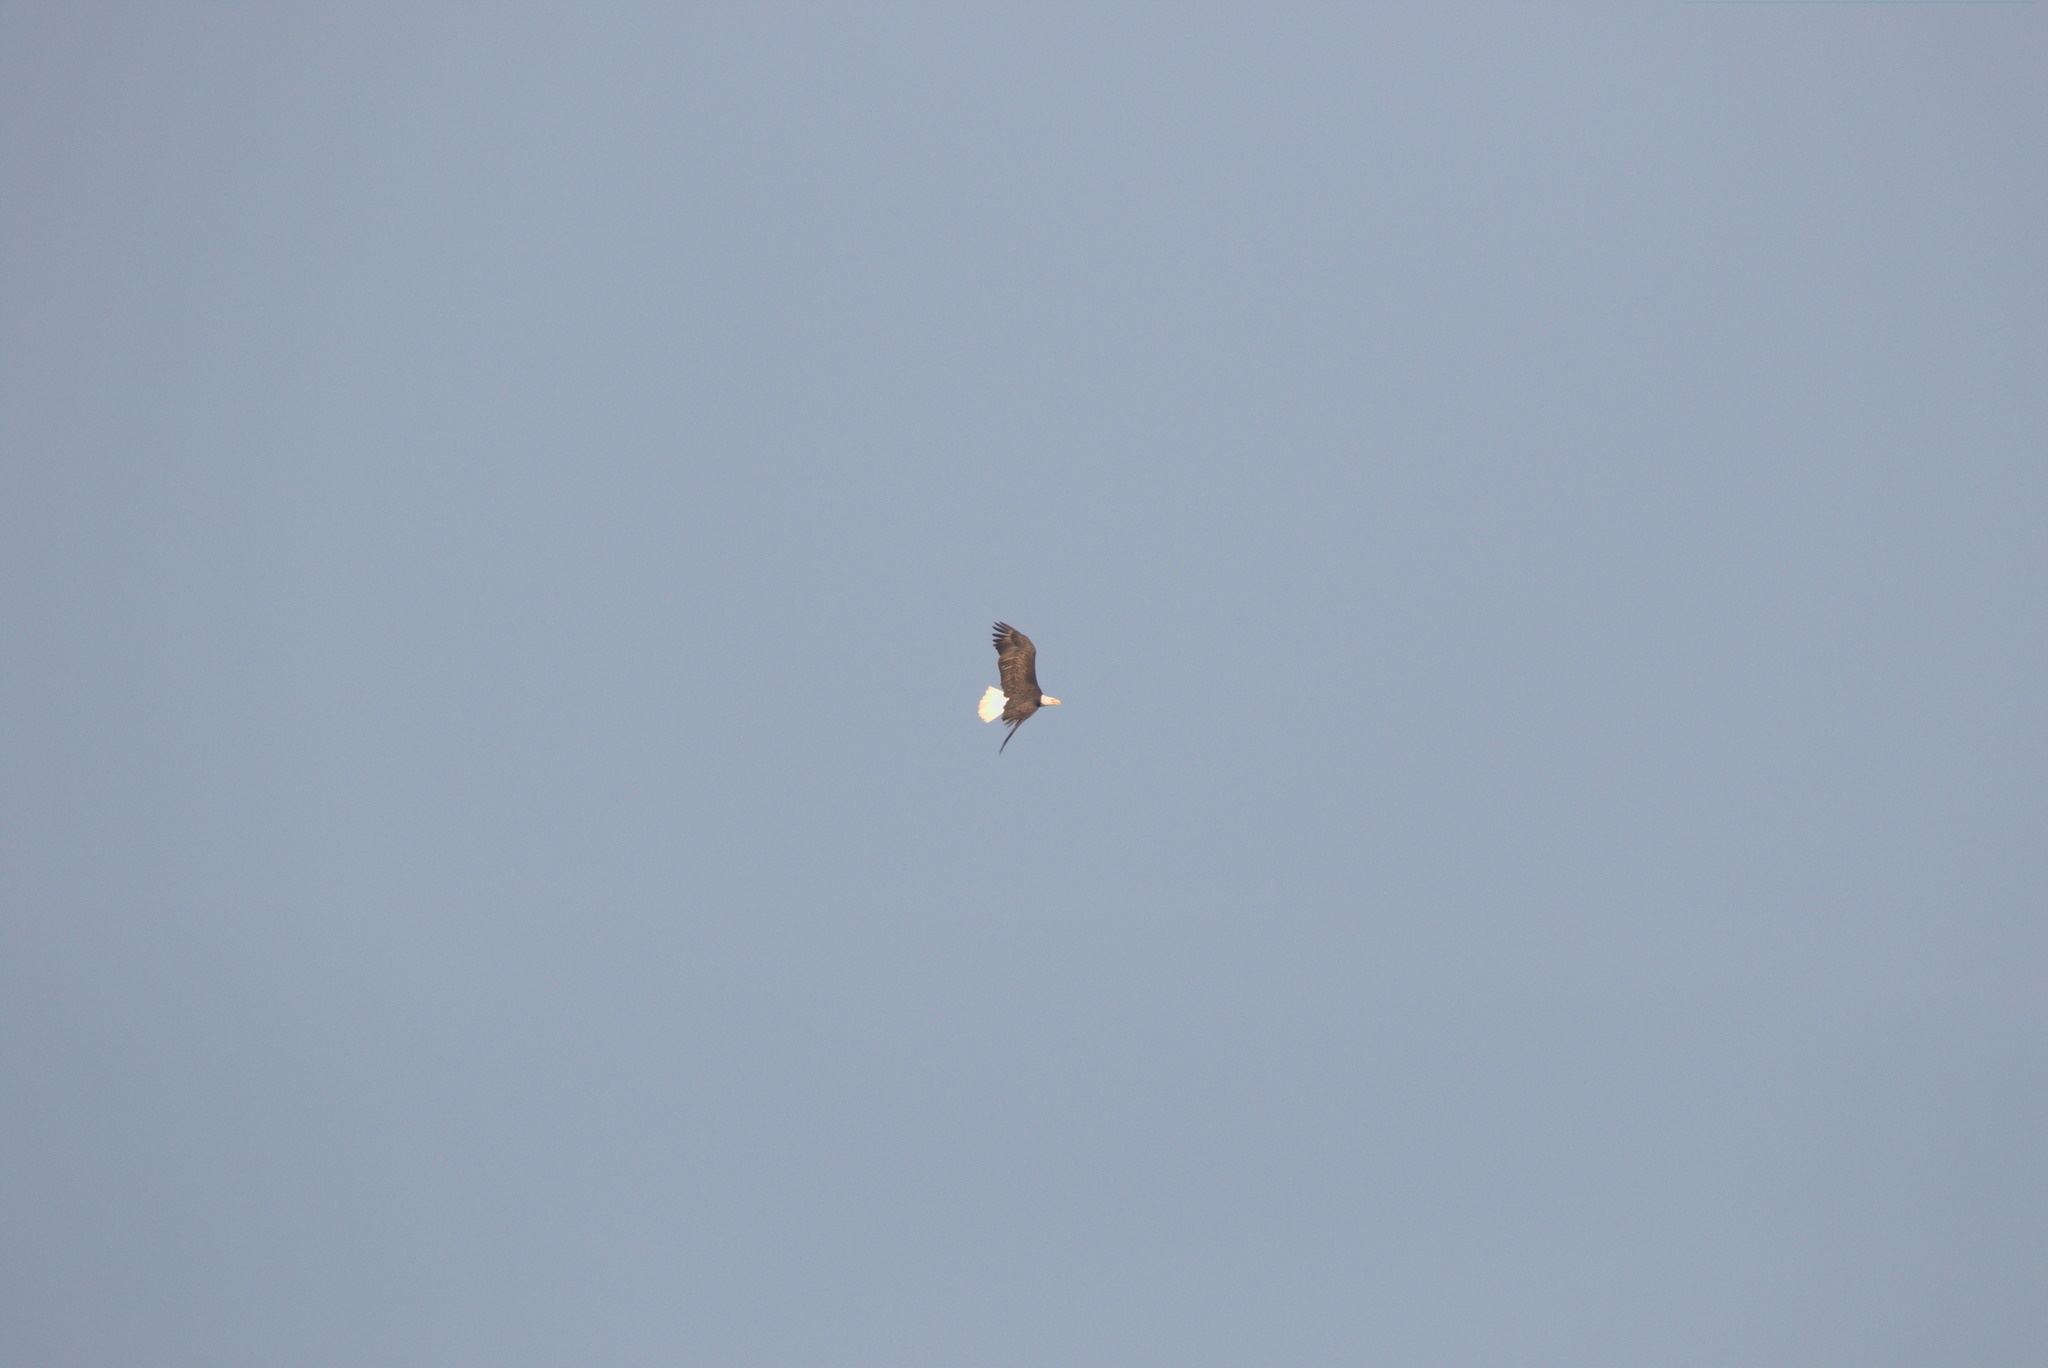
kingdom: Animalia
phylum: Chordata
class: Aves
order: Accipitriformes
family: Accipitridae
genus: Haliaeetus
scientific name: Haliaeetus leucocephalus
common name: Bald eagle
